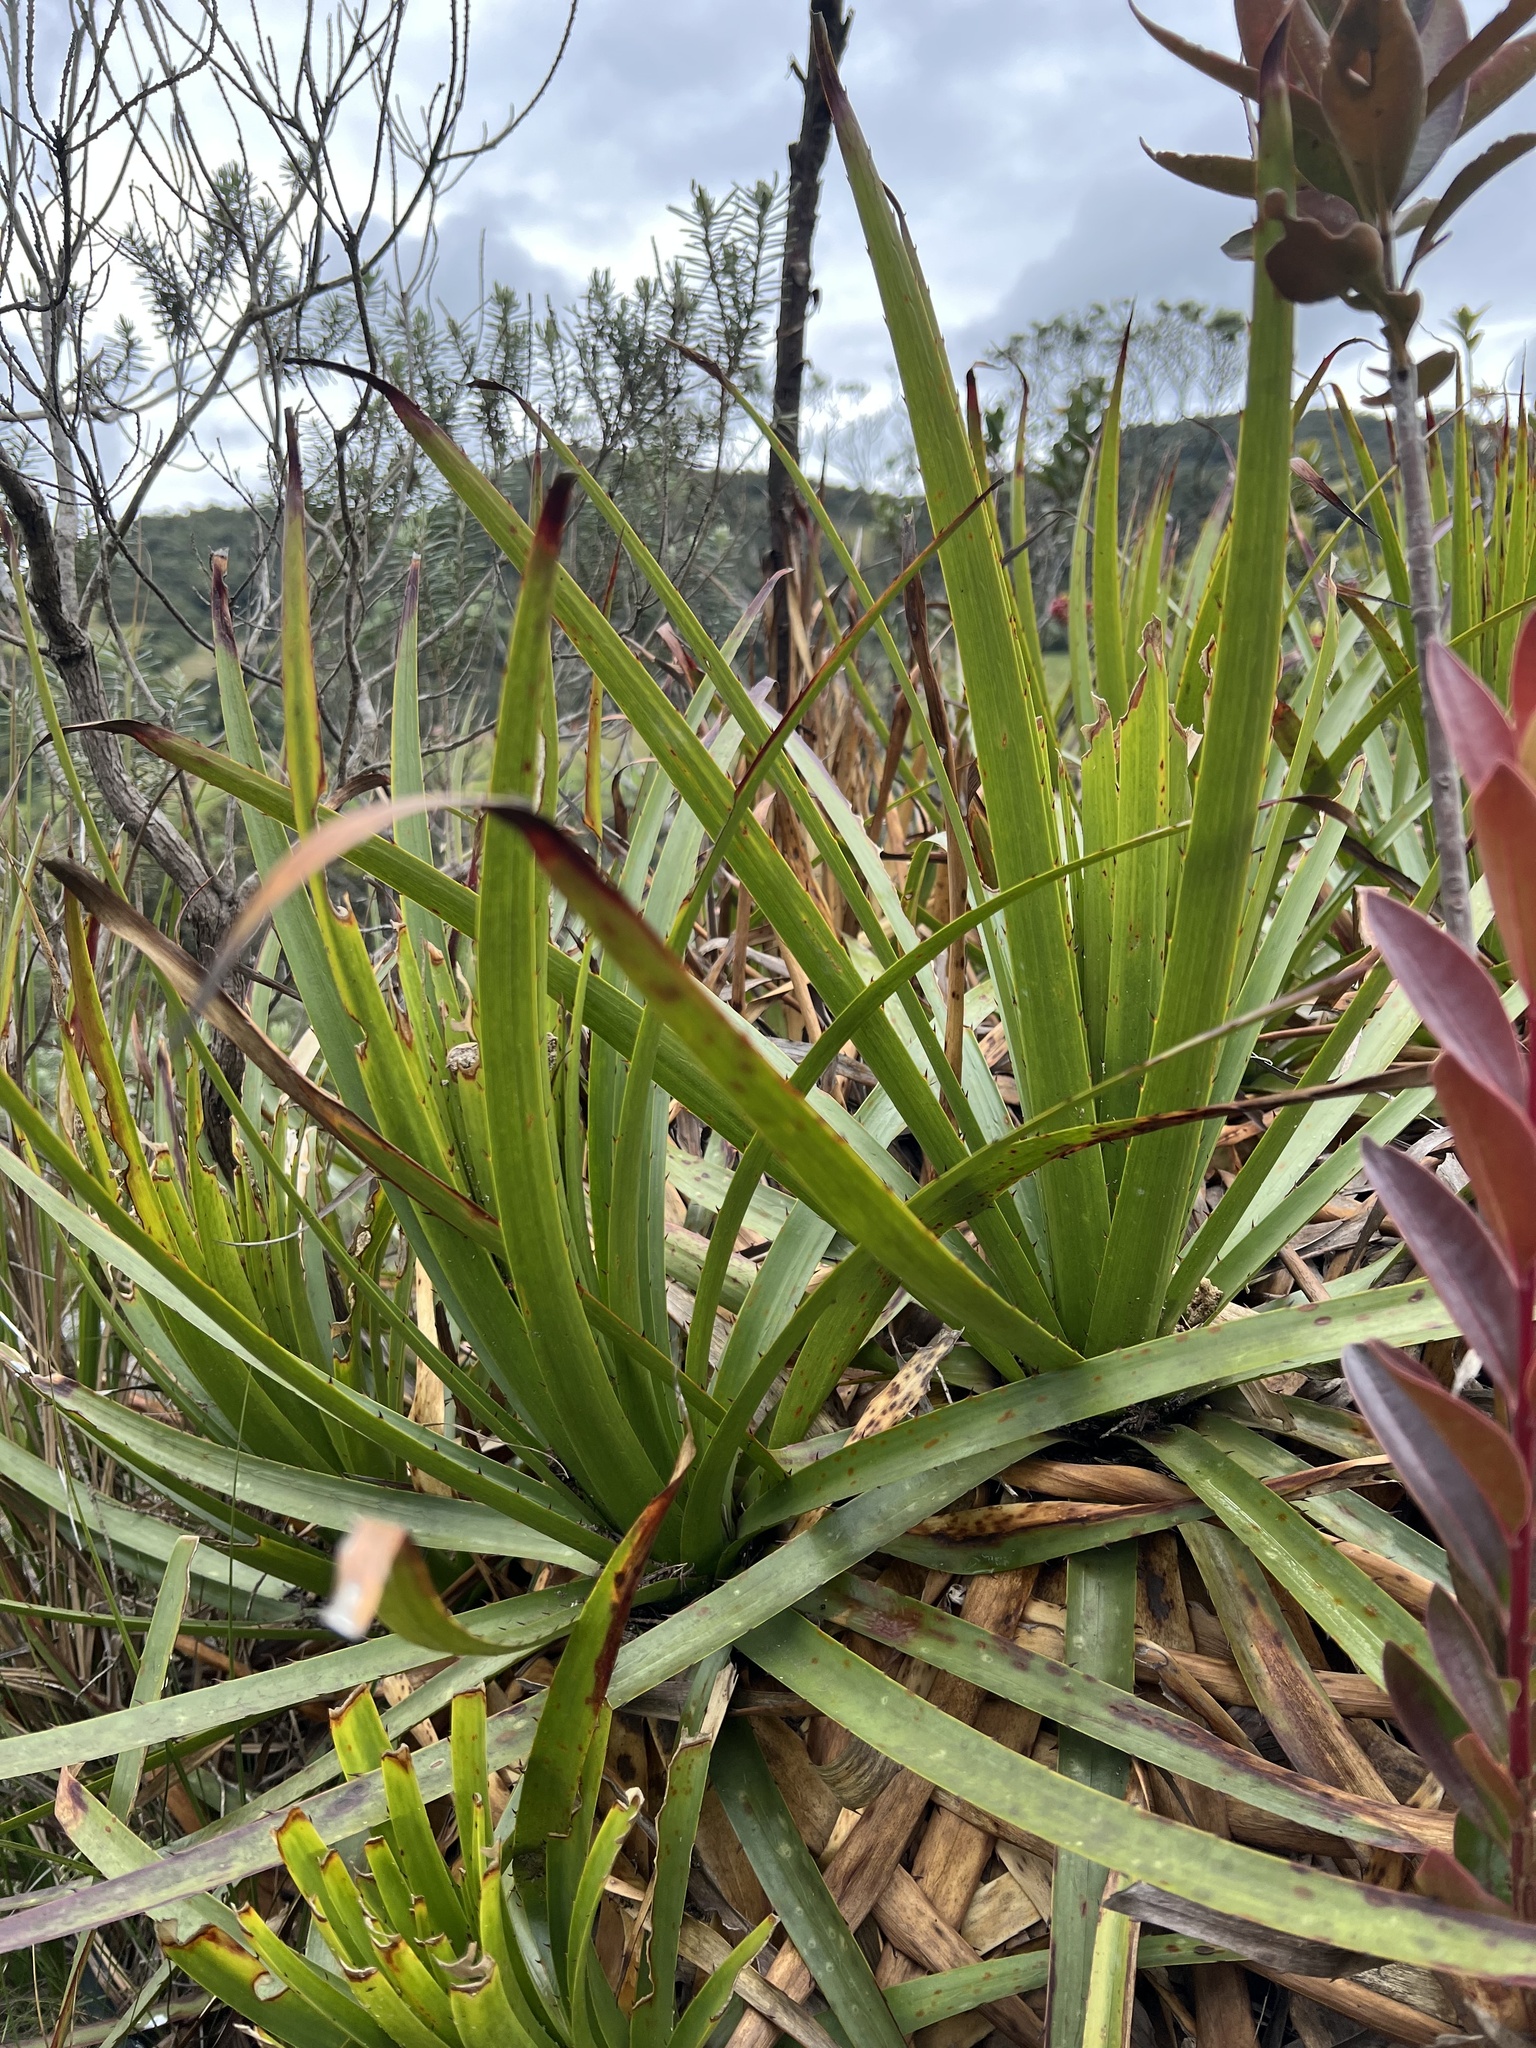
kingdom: Plantae
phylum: Tracheophyta
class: Liliopsida
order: Poales
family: Bromeliaceae
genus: Puya
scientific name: Puya nitida
